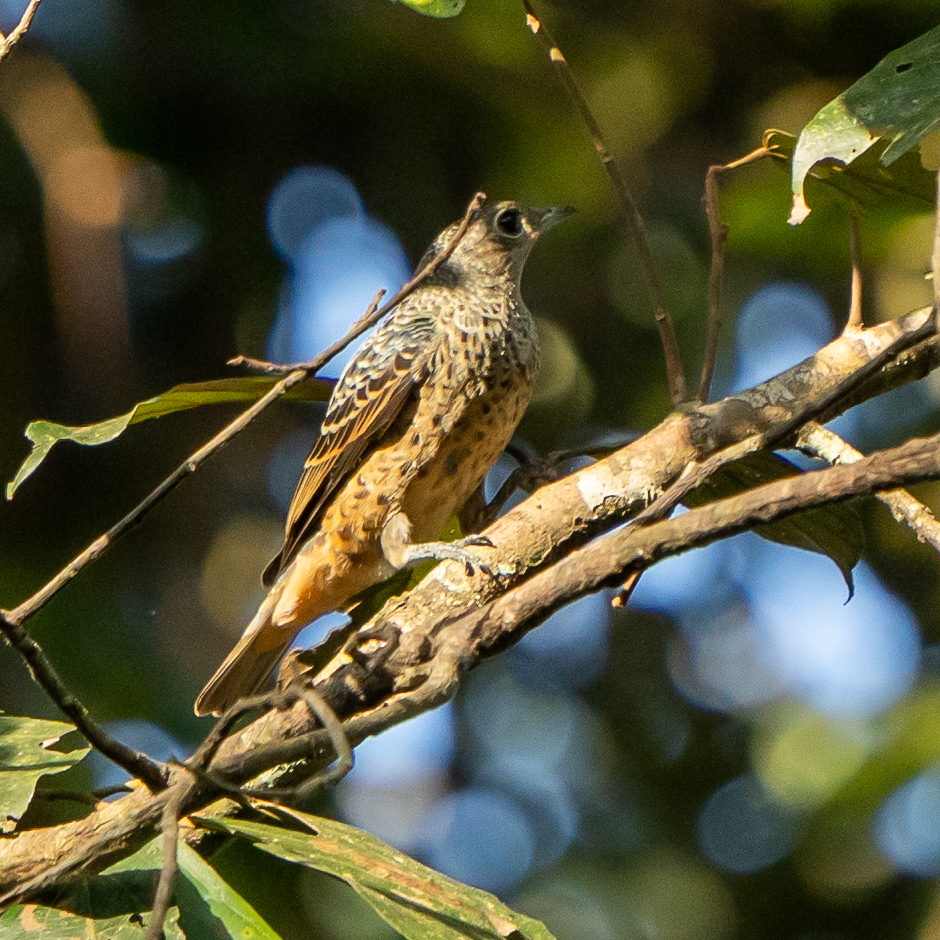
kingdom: Animalia
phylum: Chordata
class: Aves
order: Passeriformes
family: Cotingidae
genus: Cotinga
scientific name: Cotinga nattererii
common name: Blue cotinga
